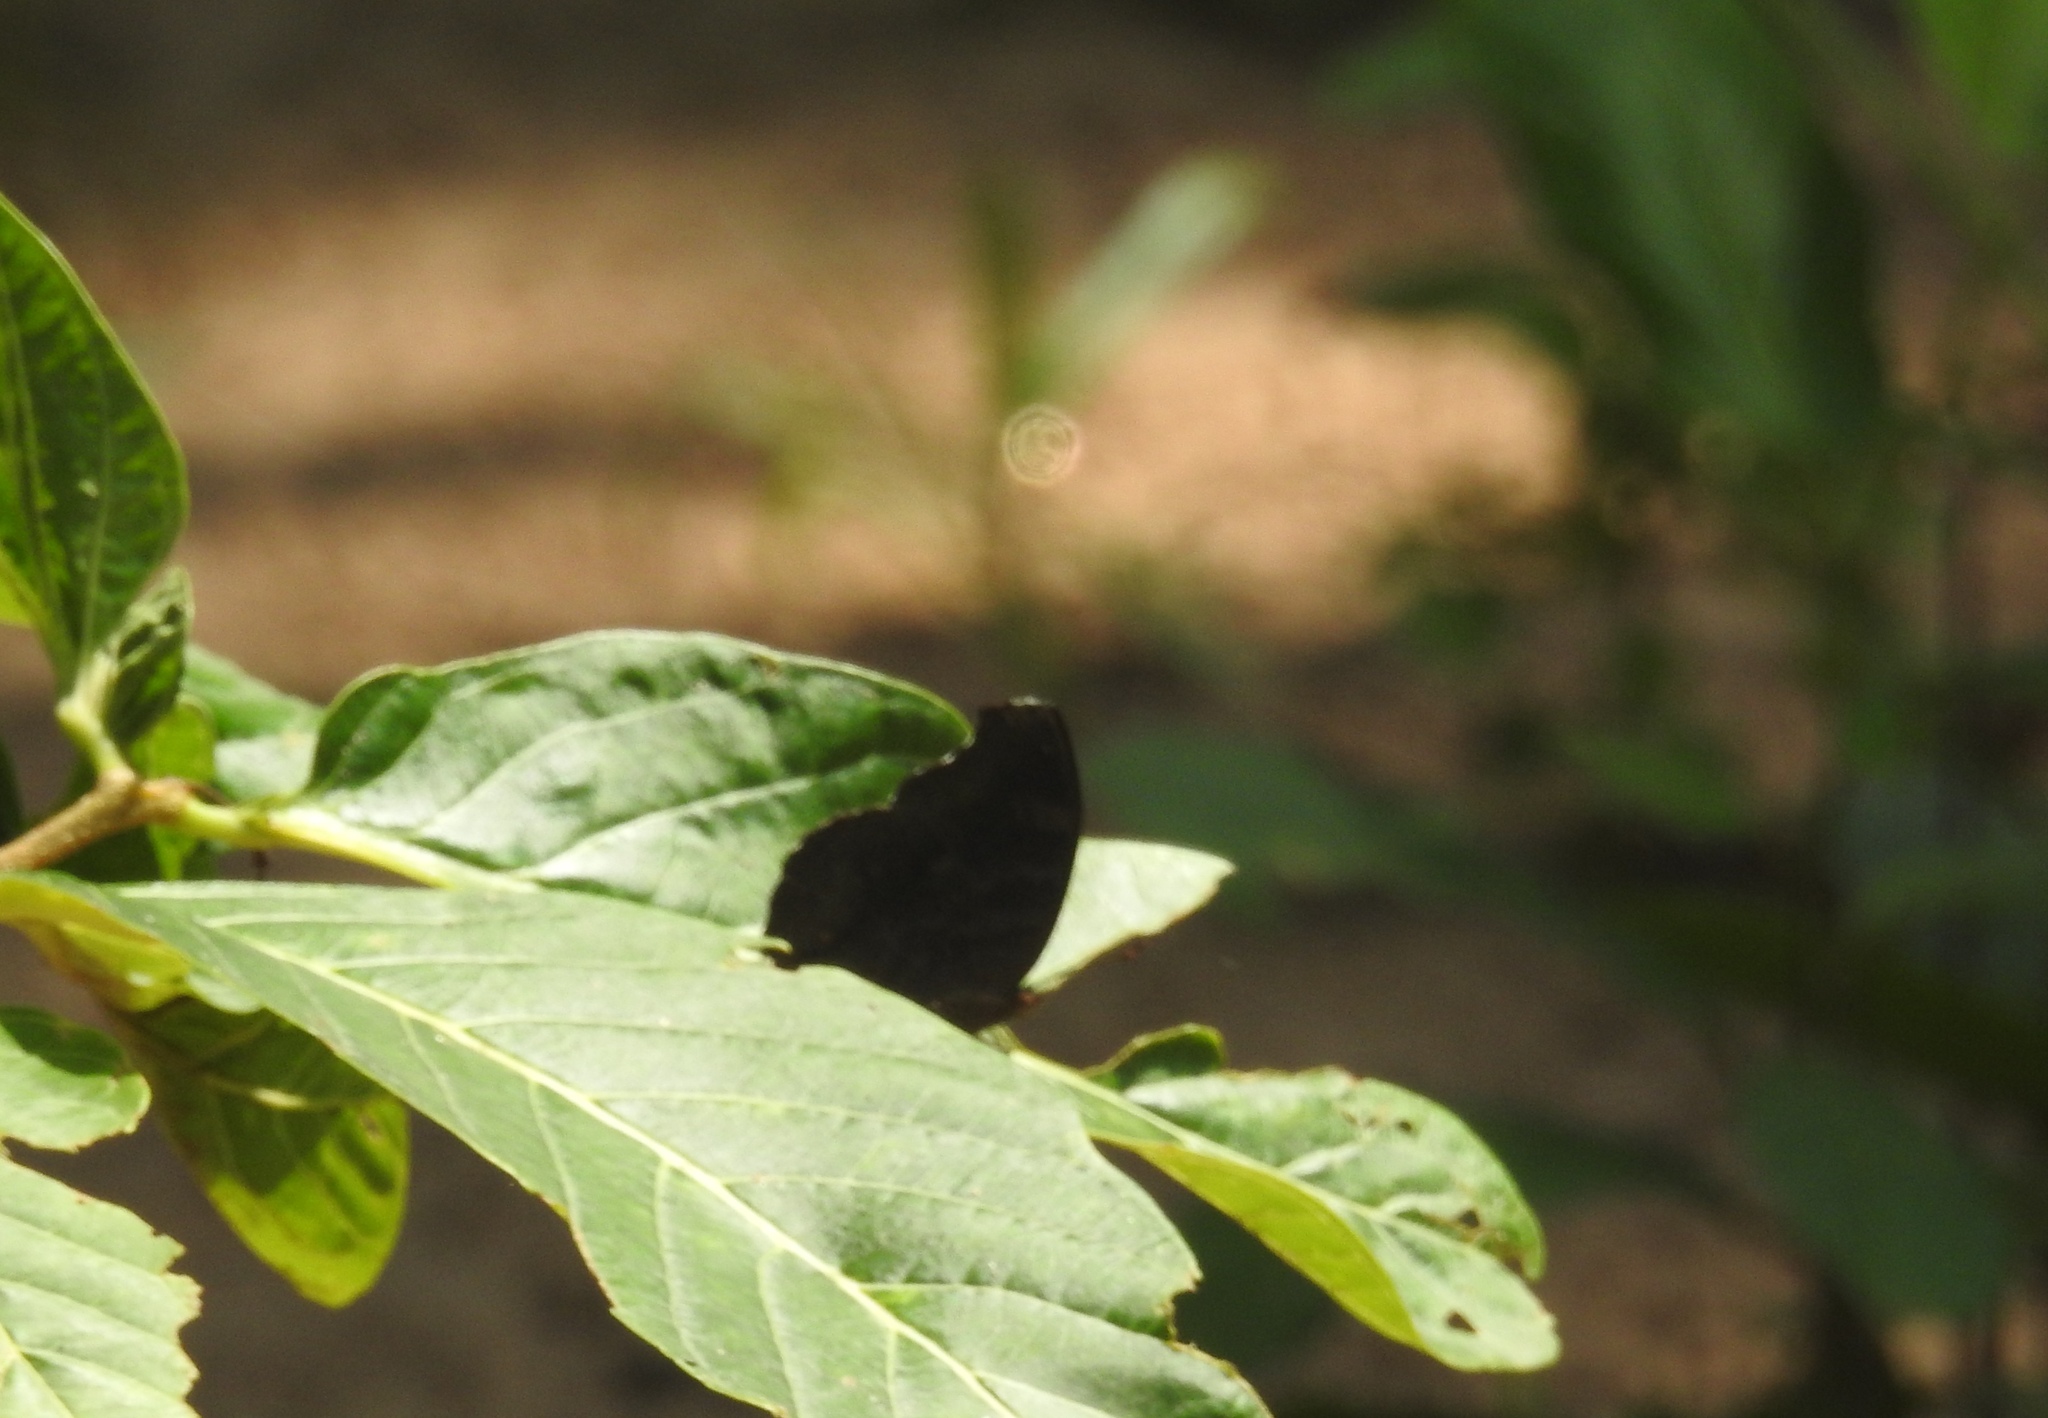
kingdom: Animalia
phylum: Arthropoda
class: Insecta
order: Lepidoptera
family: Nymphalidae
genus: Junonia
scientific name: Junonia iphita
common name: Chocolate pansy
